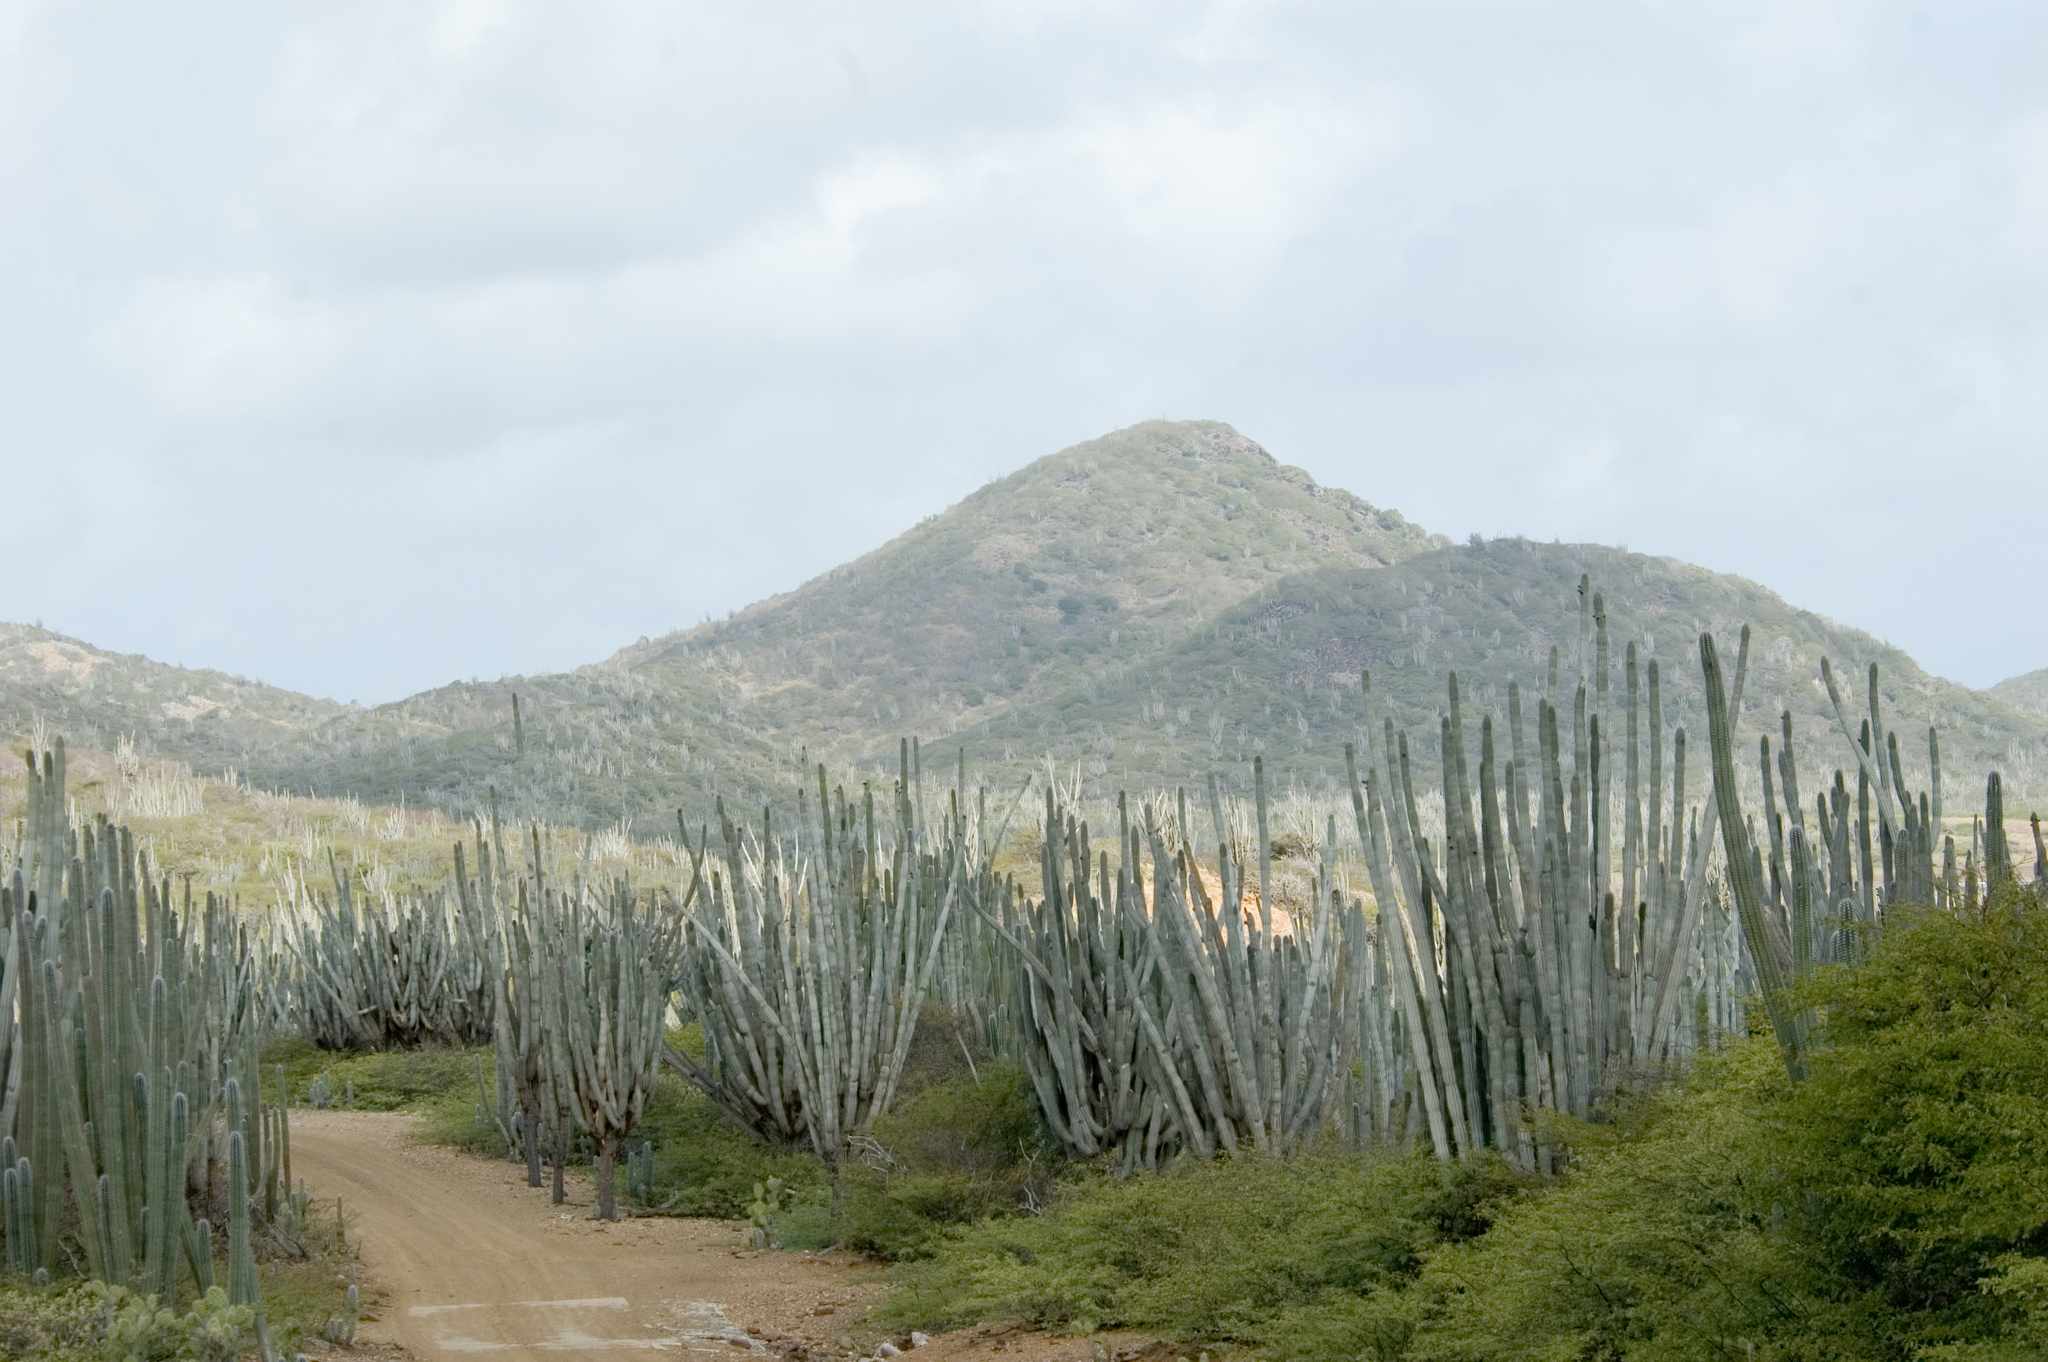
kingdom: Plantae
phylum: Tracheophyta
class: Magnoliopsida
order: Caryophyllales
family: Cactaceae
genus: Cereus
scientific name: Cereus repandus
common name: Sweetpotato cactus
